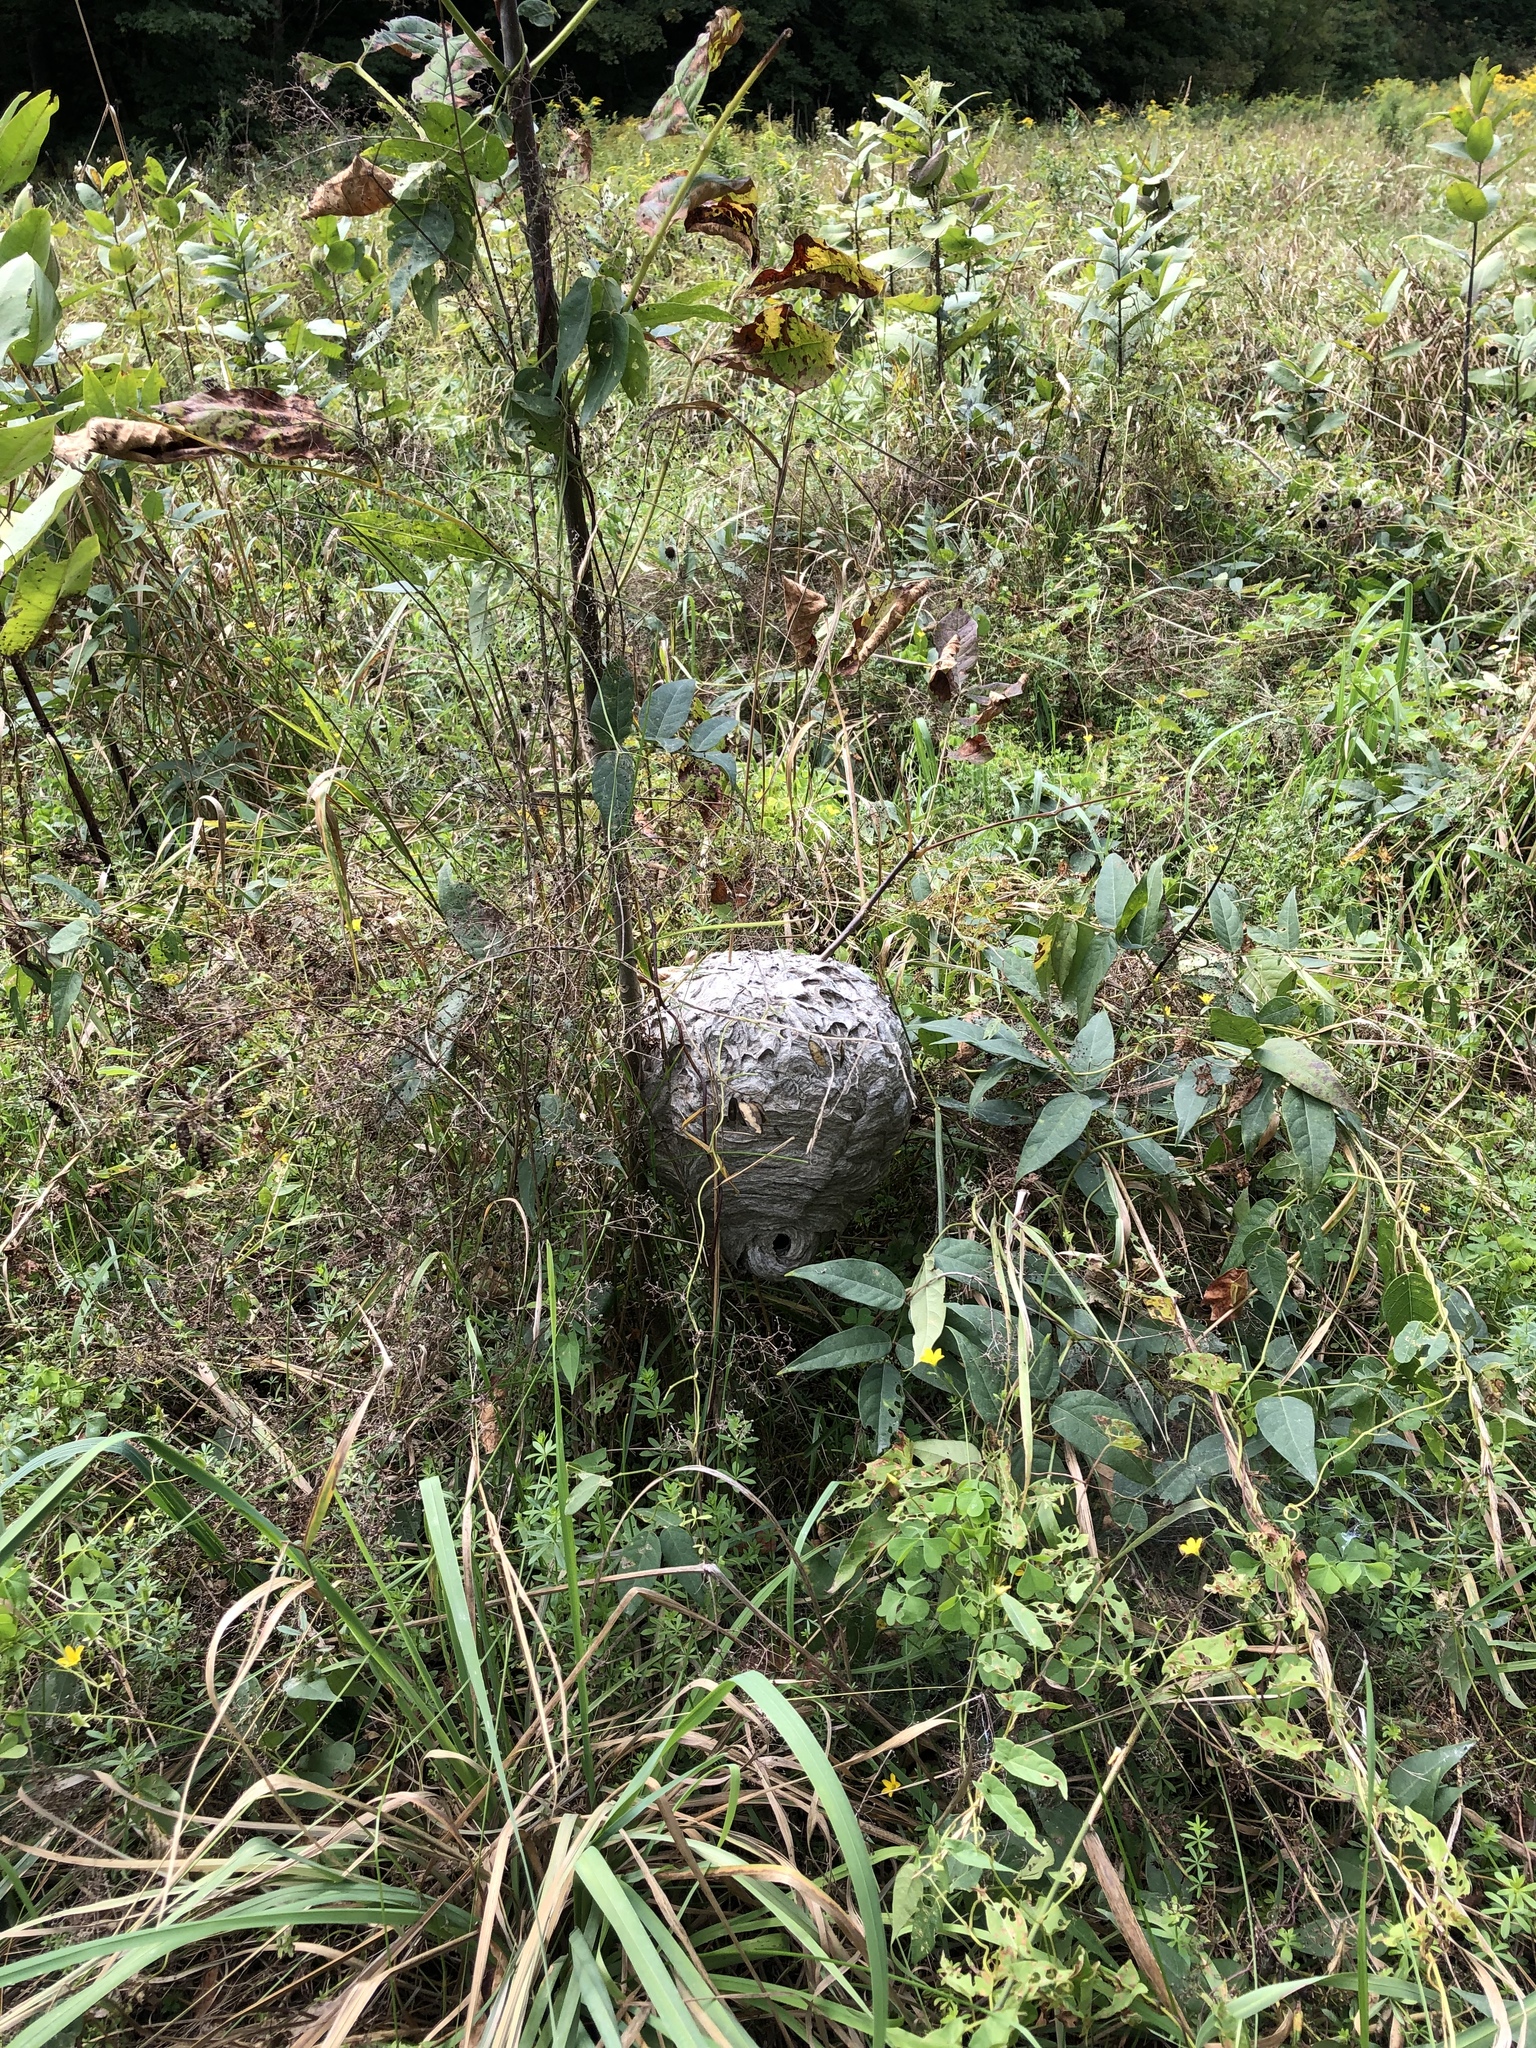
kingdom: Animalia
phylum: Arthropoda
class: Insecta
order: Hymenoptera
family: Vespidae
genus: Dolichovespula
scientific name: Dolichovespula maculata
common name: Bald-faced hornet
